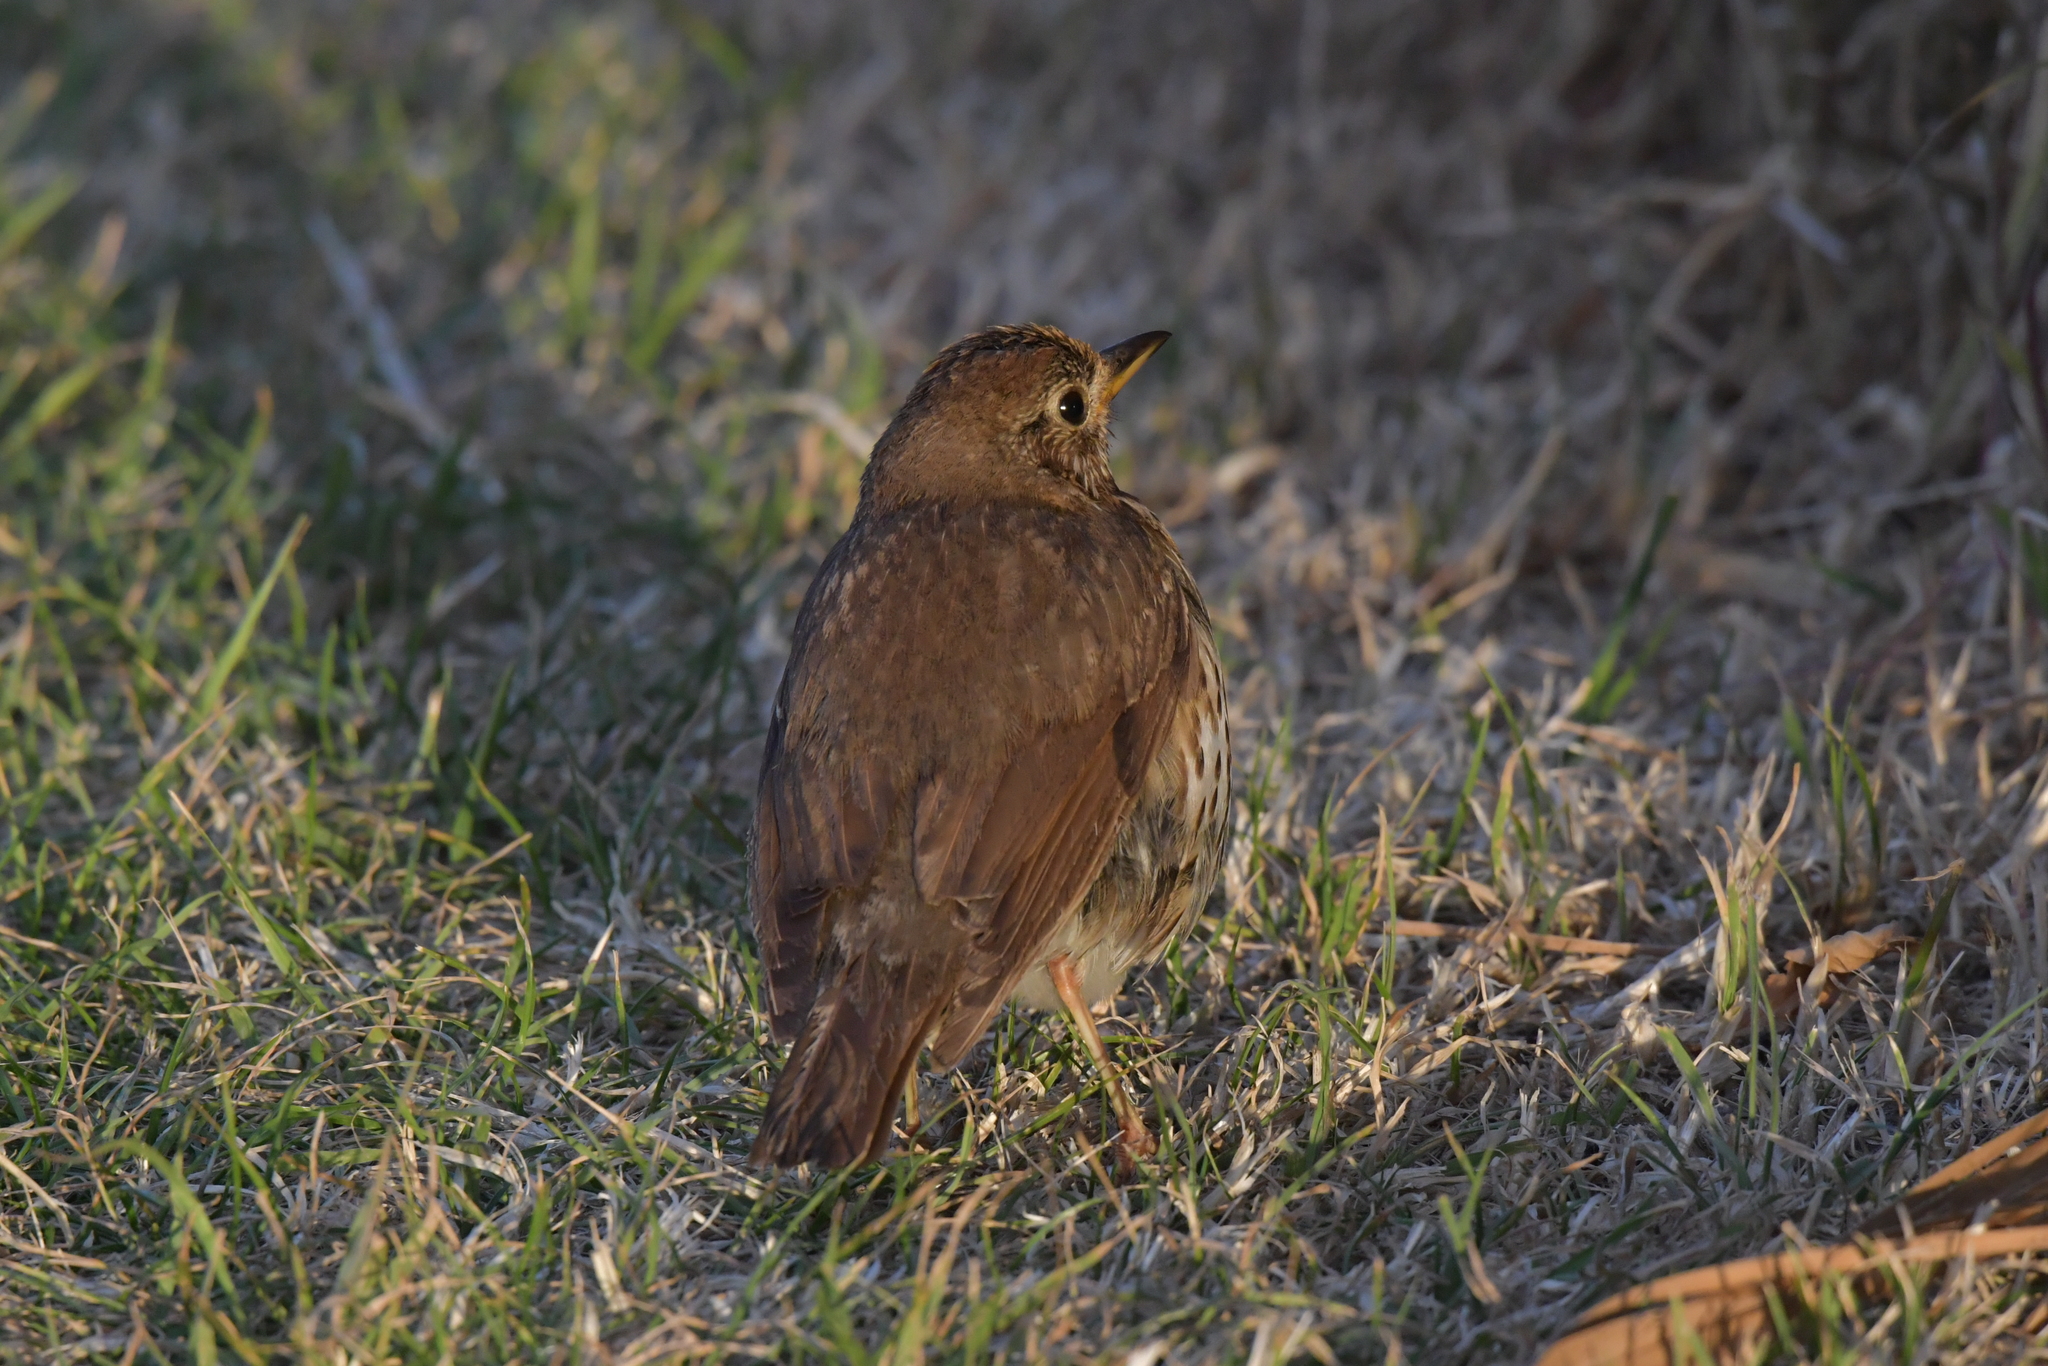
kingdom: Animalia
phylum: Chordata
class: Aves
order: Passeriformes
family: Turdidae
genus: Turdus
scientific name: Turdus philomelos
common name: Song thrush
